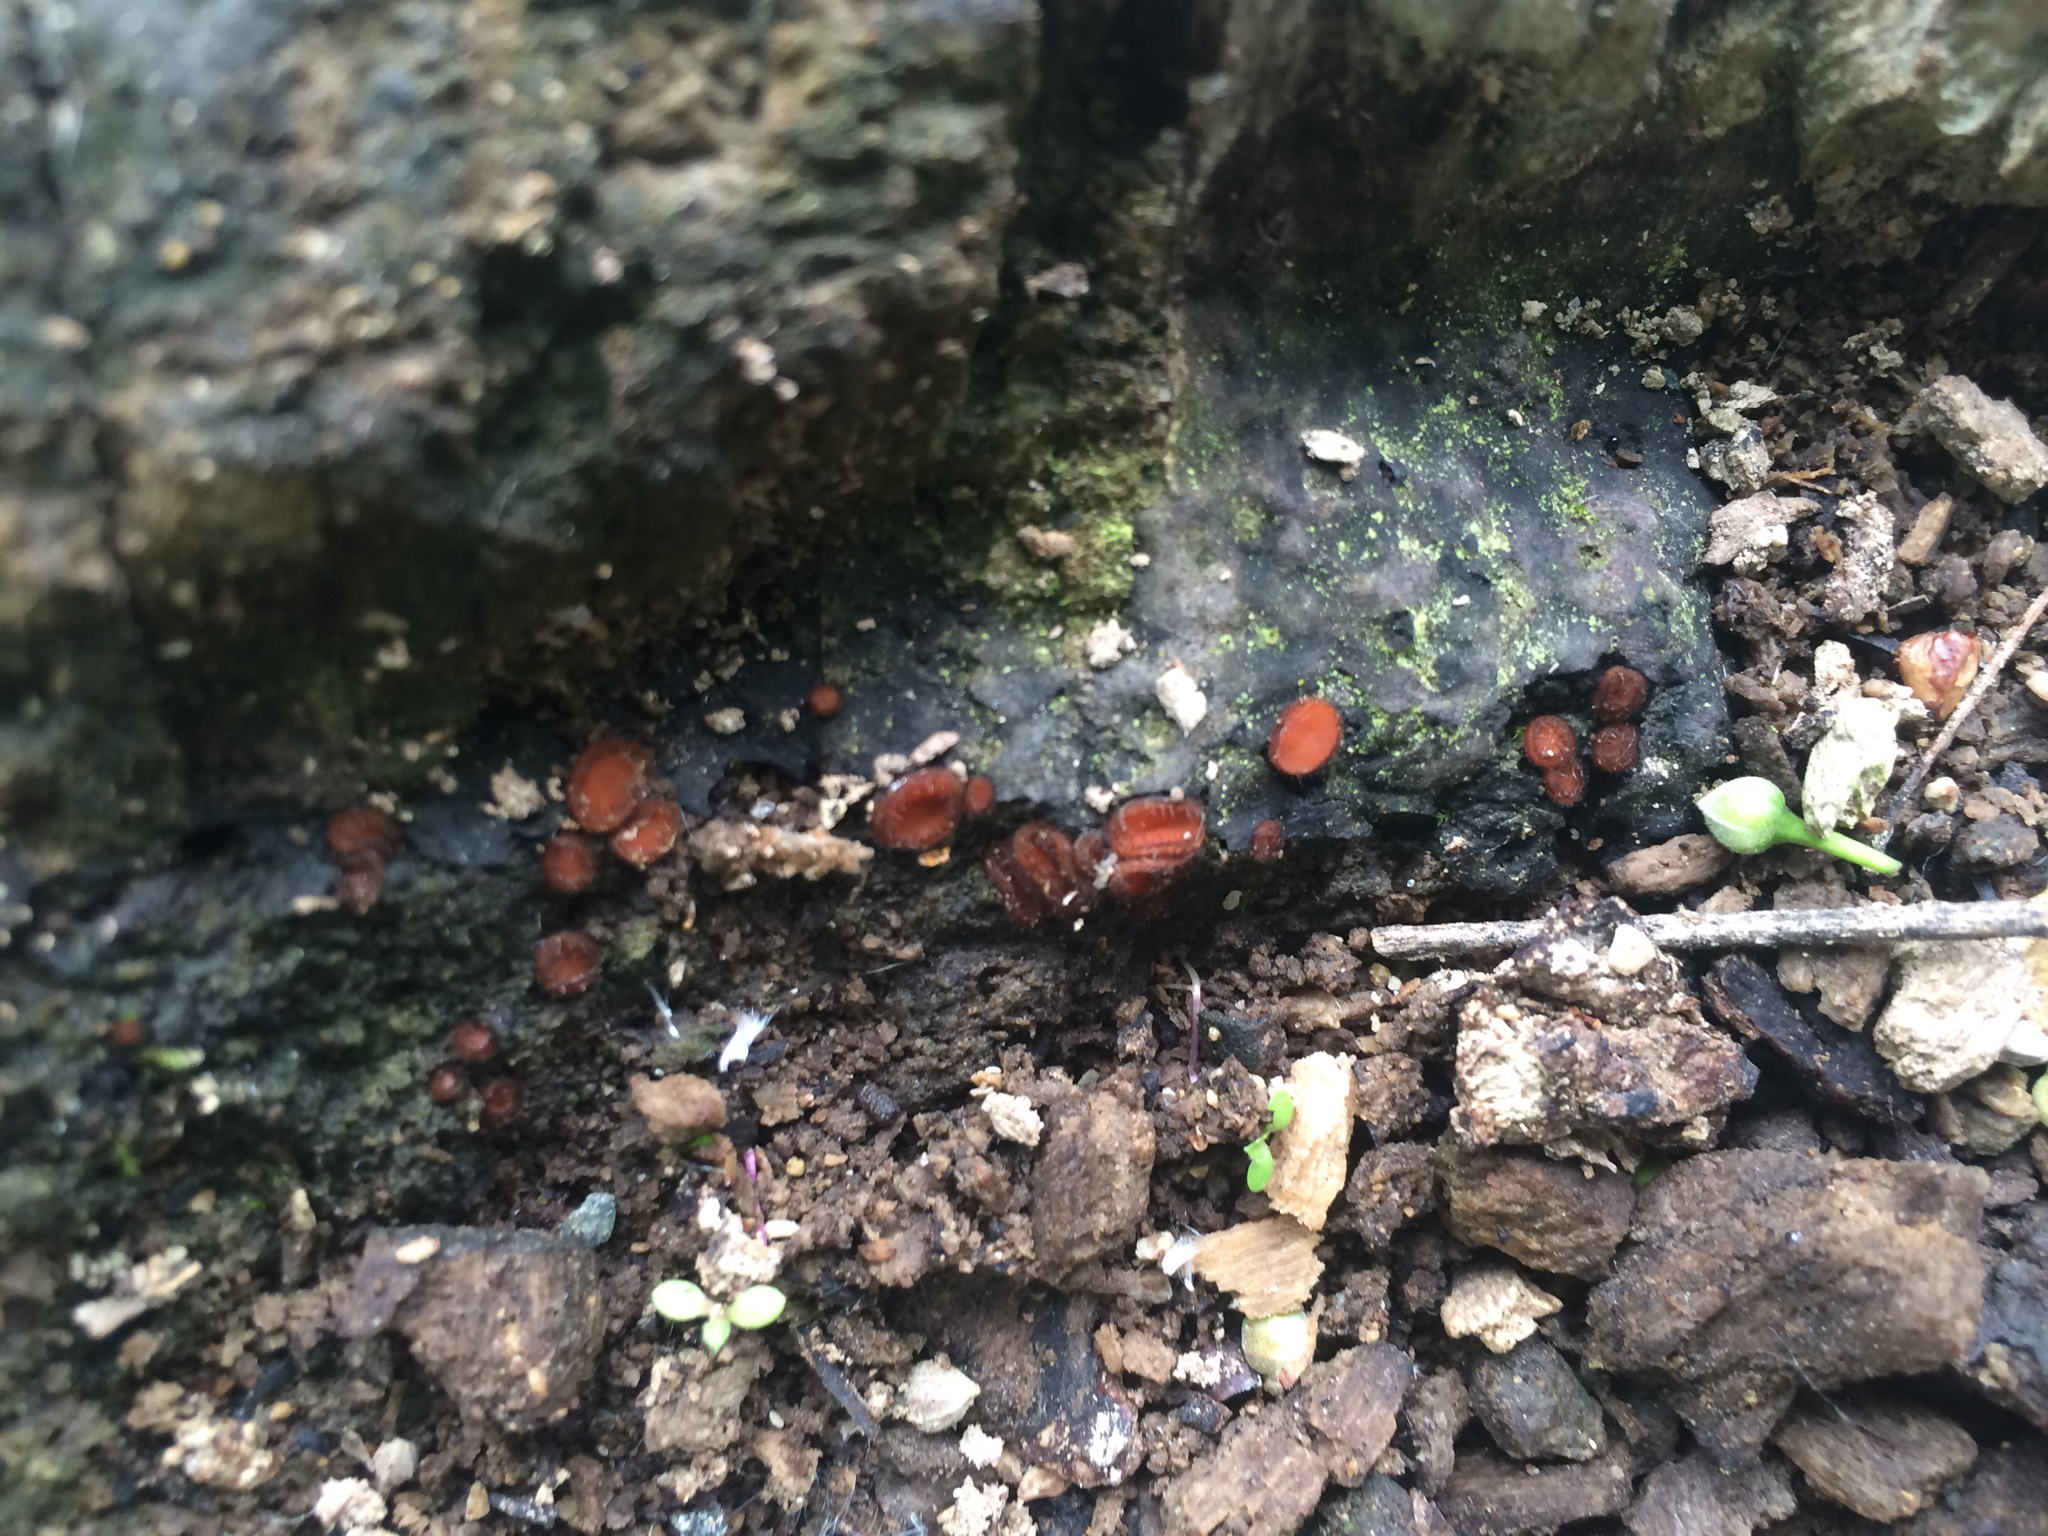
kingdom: Fungi
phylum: Ascomycota
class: Pezizomycetes
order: Pezizales
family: Pyronemataceae
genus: Scutellinia
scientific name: Scutellinia scutellata
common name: Common eyelash
